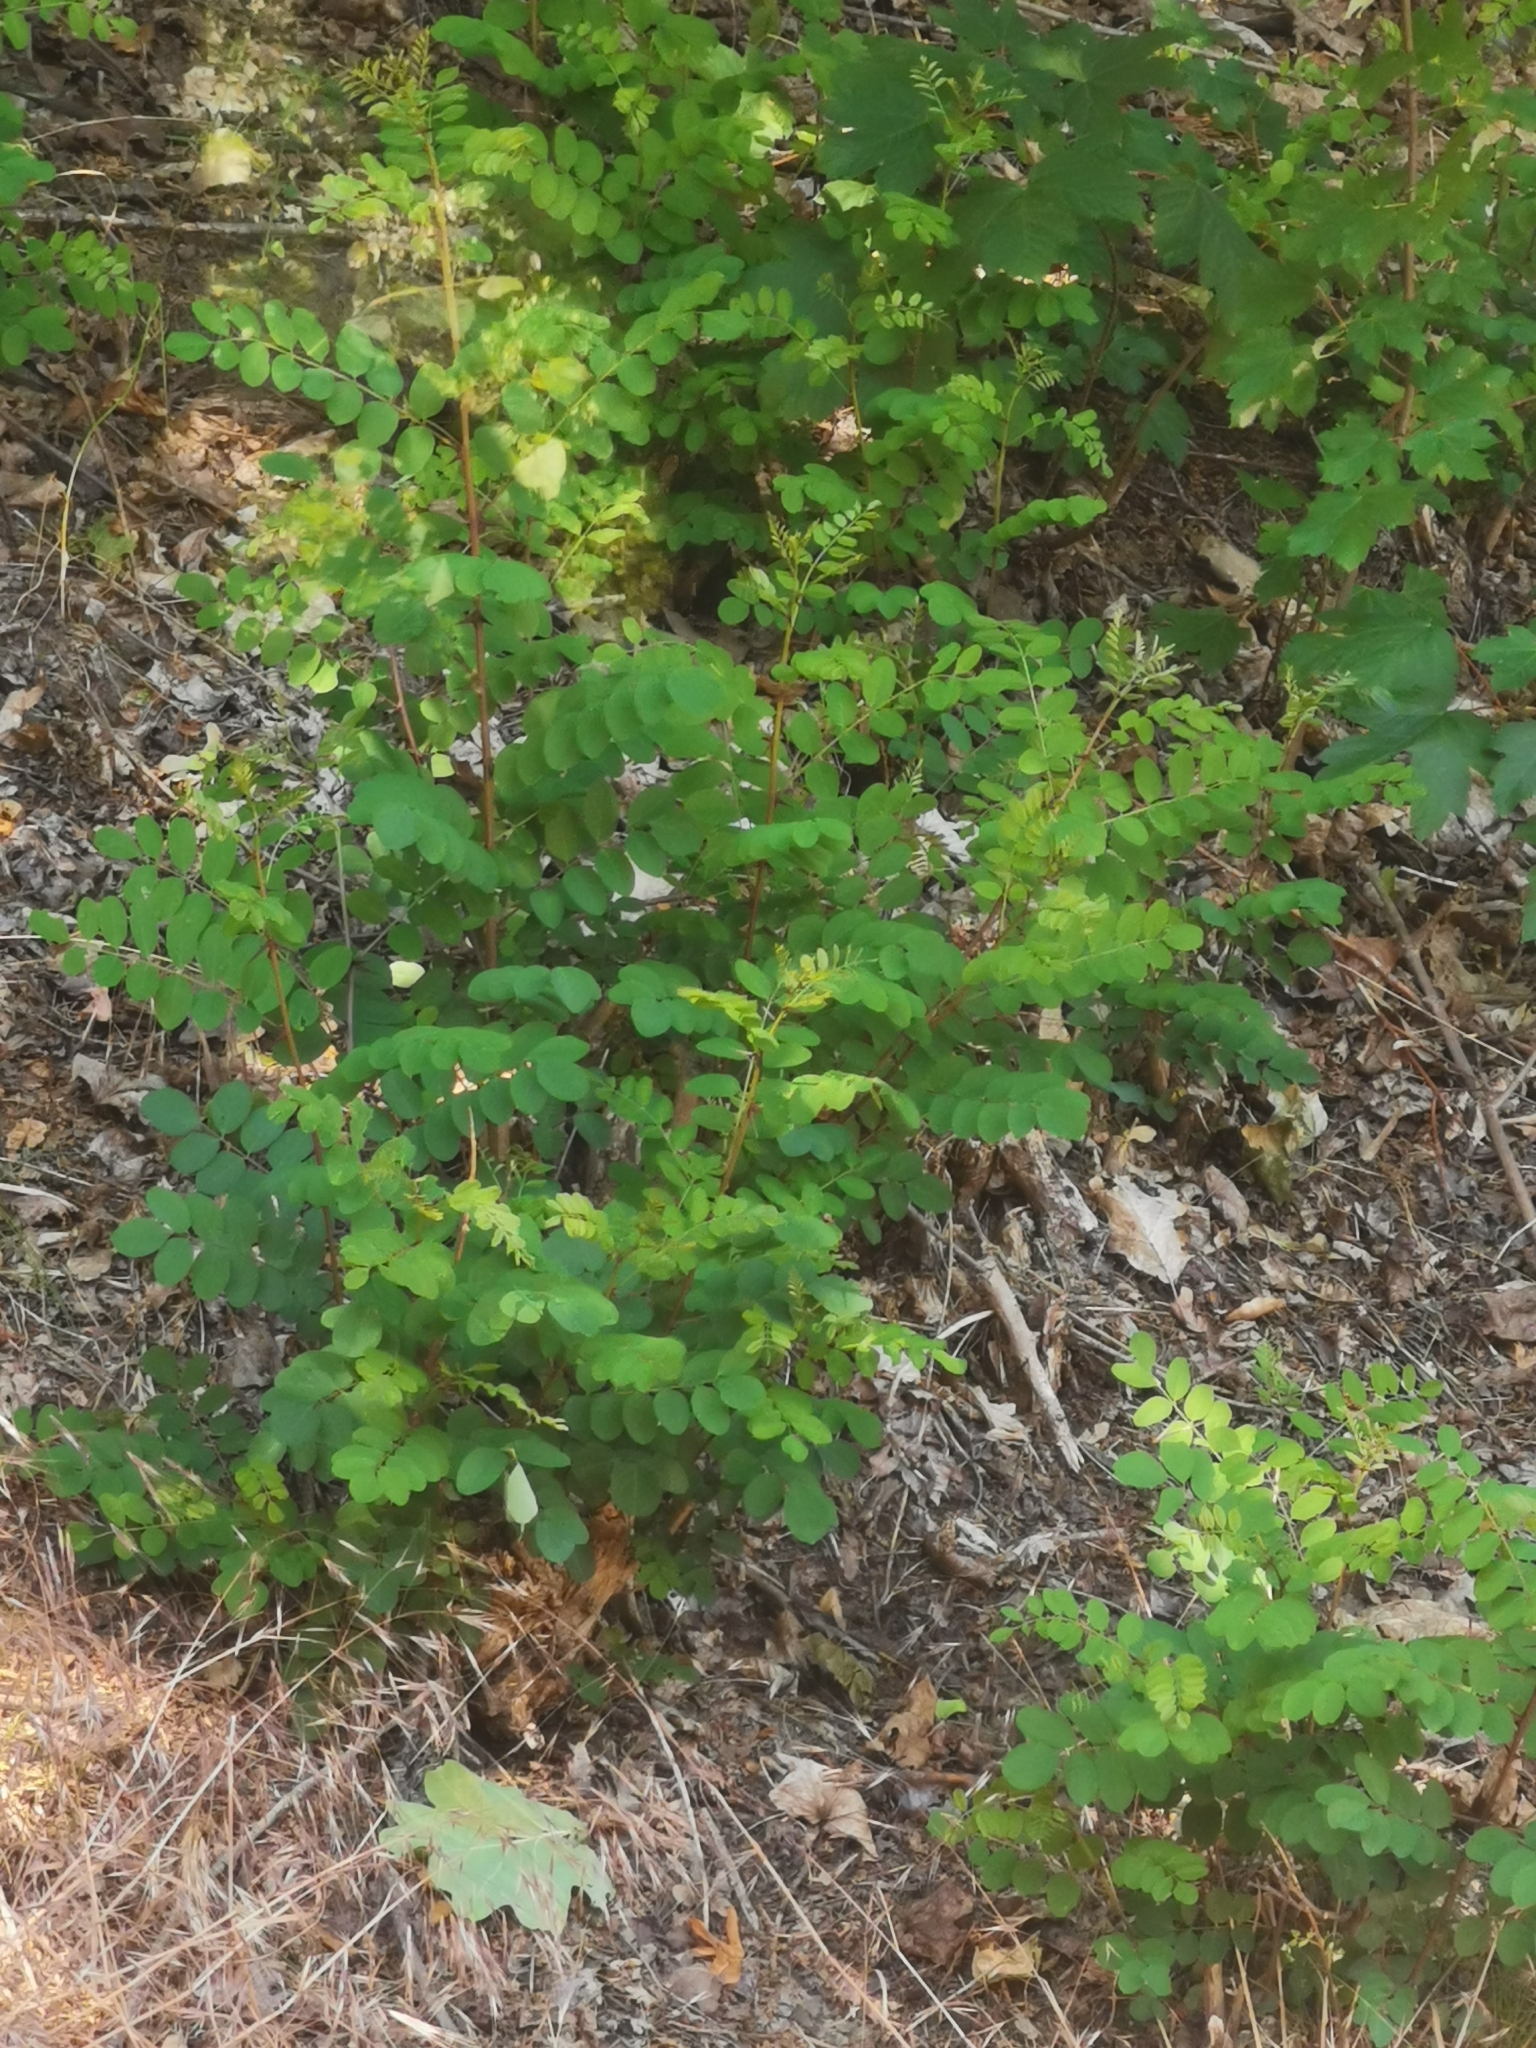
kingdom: Plantae
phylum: Tracheophyta
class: Magnoliopsida
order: Fabales
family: Fabaceae
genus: Robinia
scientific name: Robinia pseudoacacia
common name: Black locust
